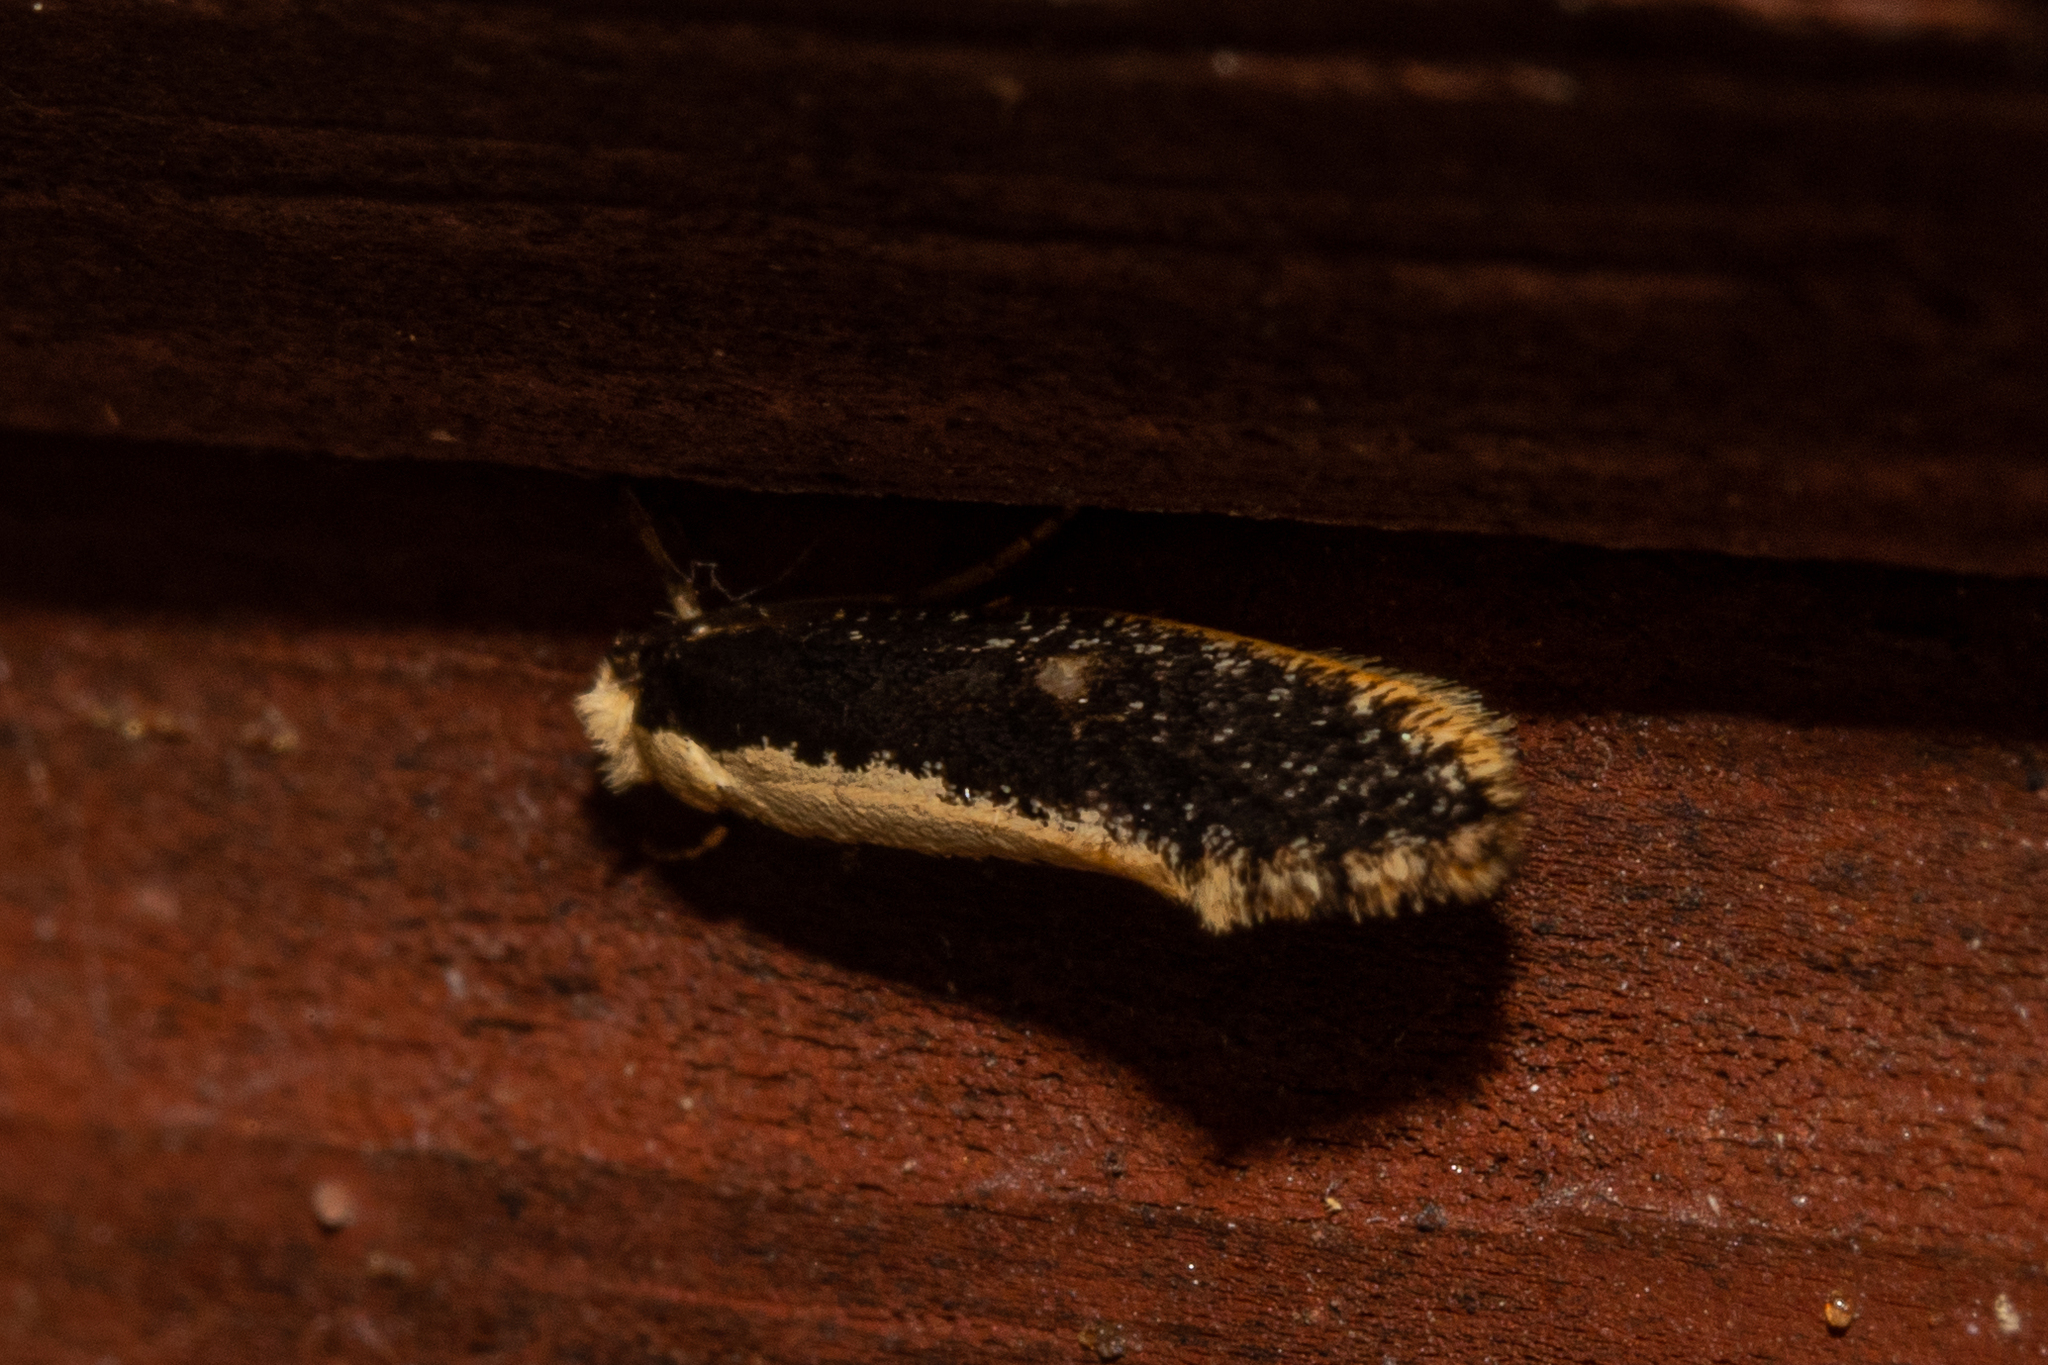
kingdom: Animalia
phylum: Arthropoda
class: Insecta
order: Lepidoptera
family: Tineidae
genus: Monopis
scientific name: Monopis ethelella
